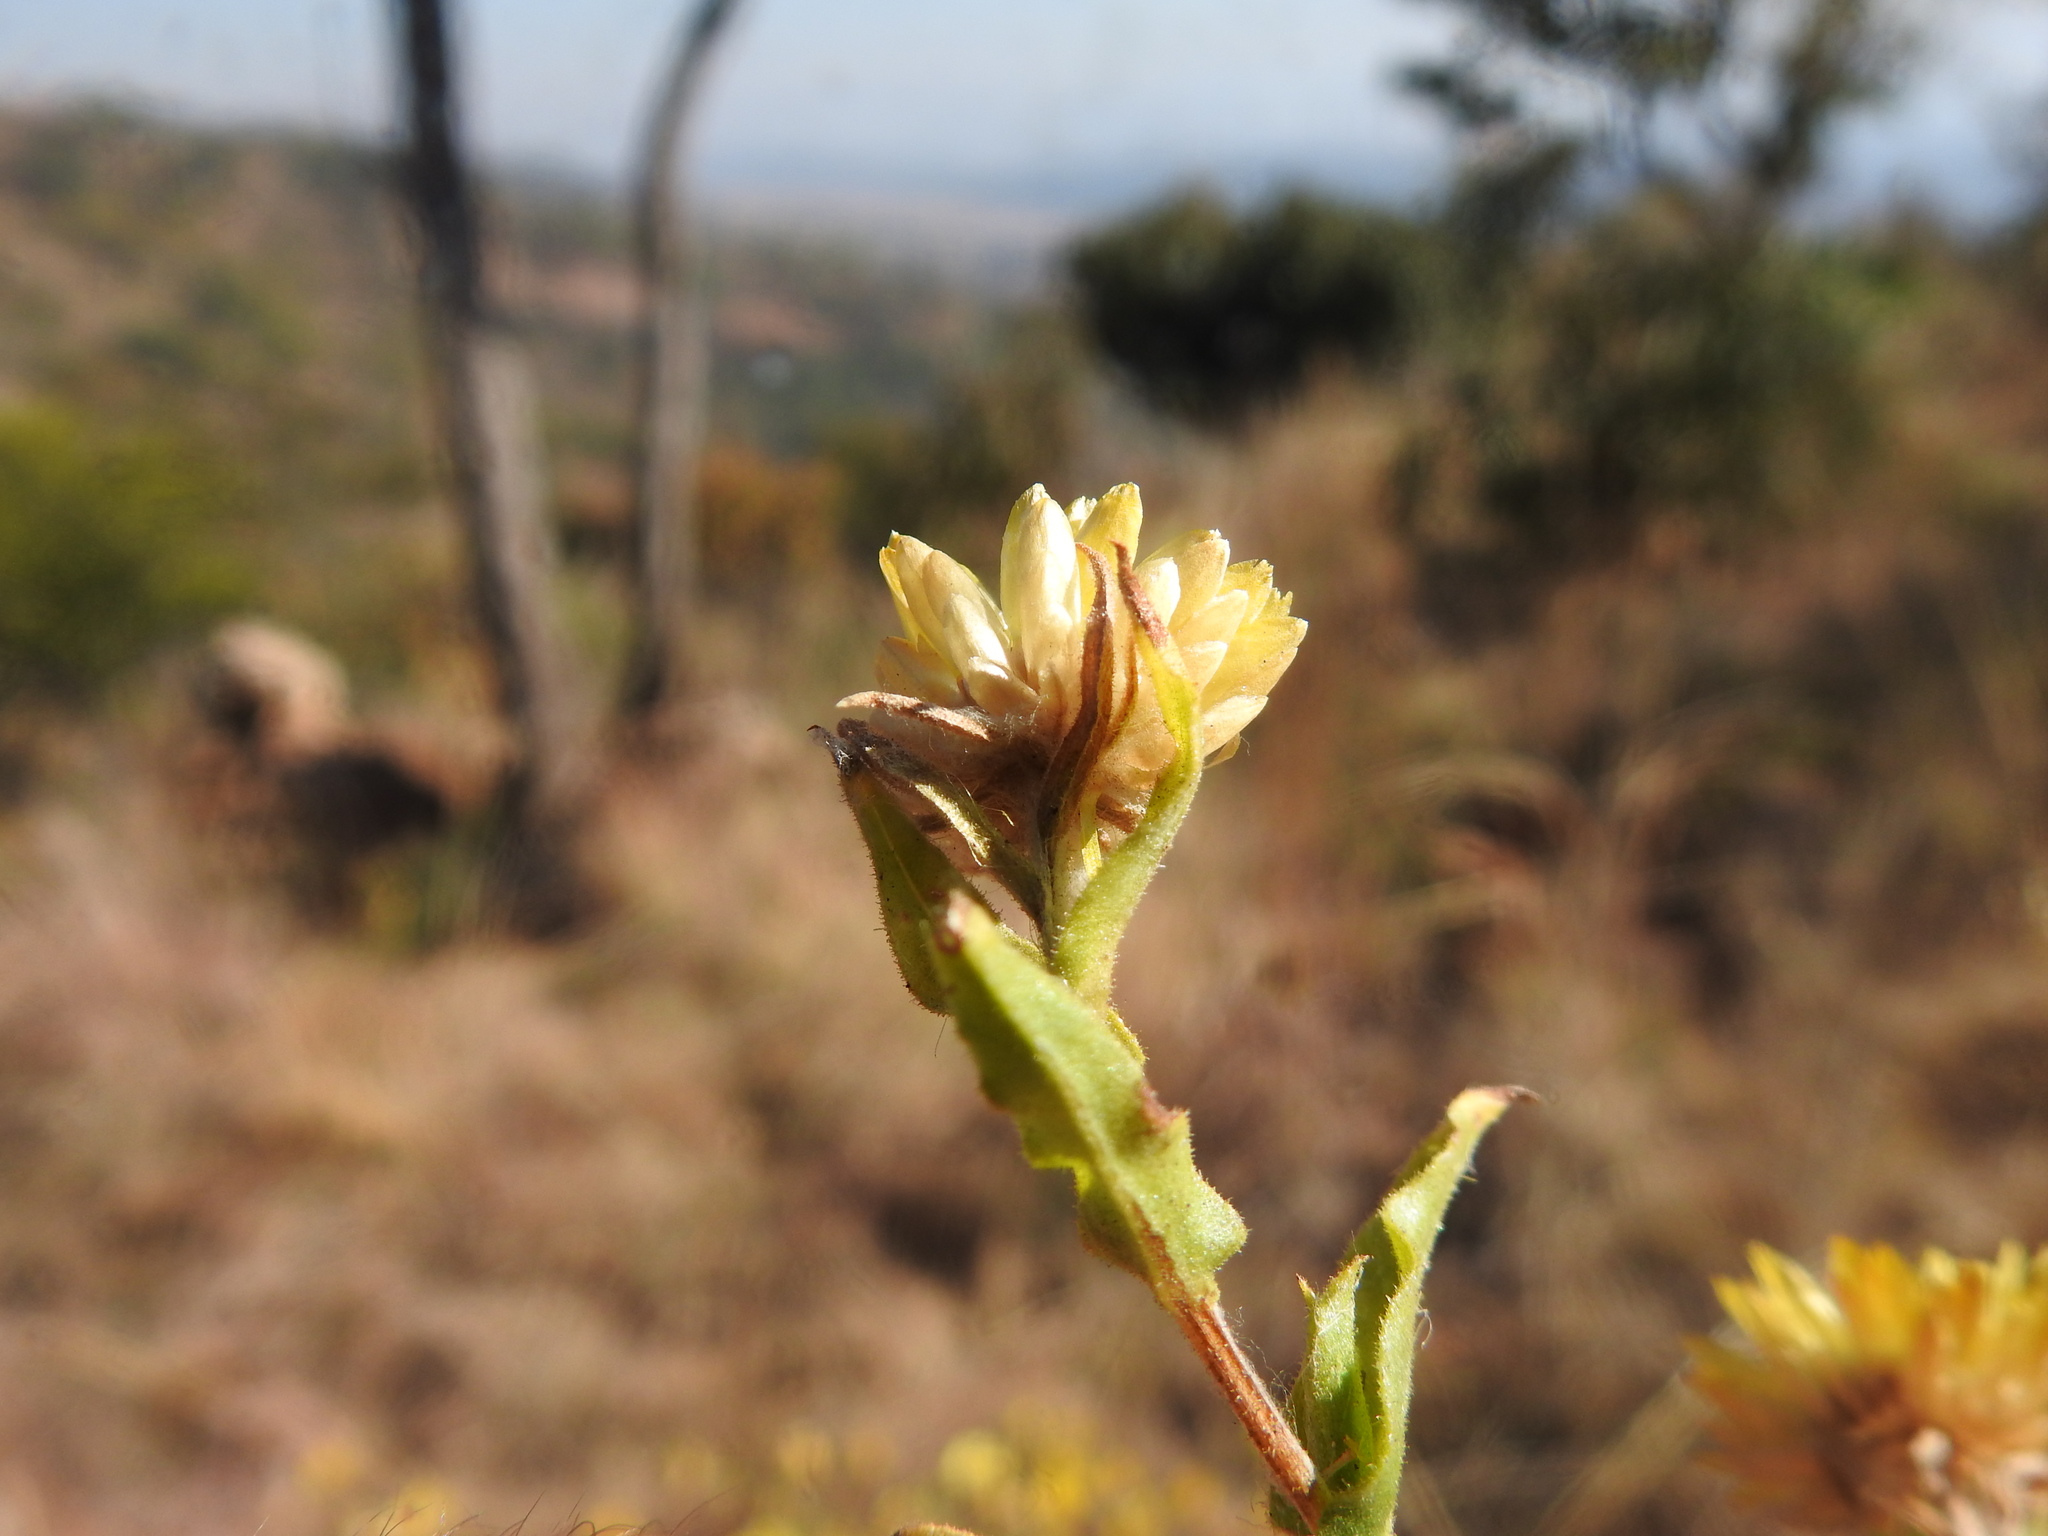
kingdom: Plantae
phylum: Tracheophyta
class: Magnoliopsida
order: Asterales
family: Asteraceae
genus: Helichrysum
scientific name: Helichrysum setosum
